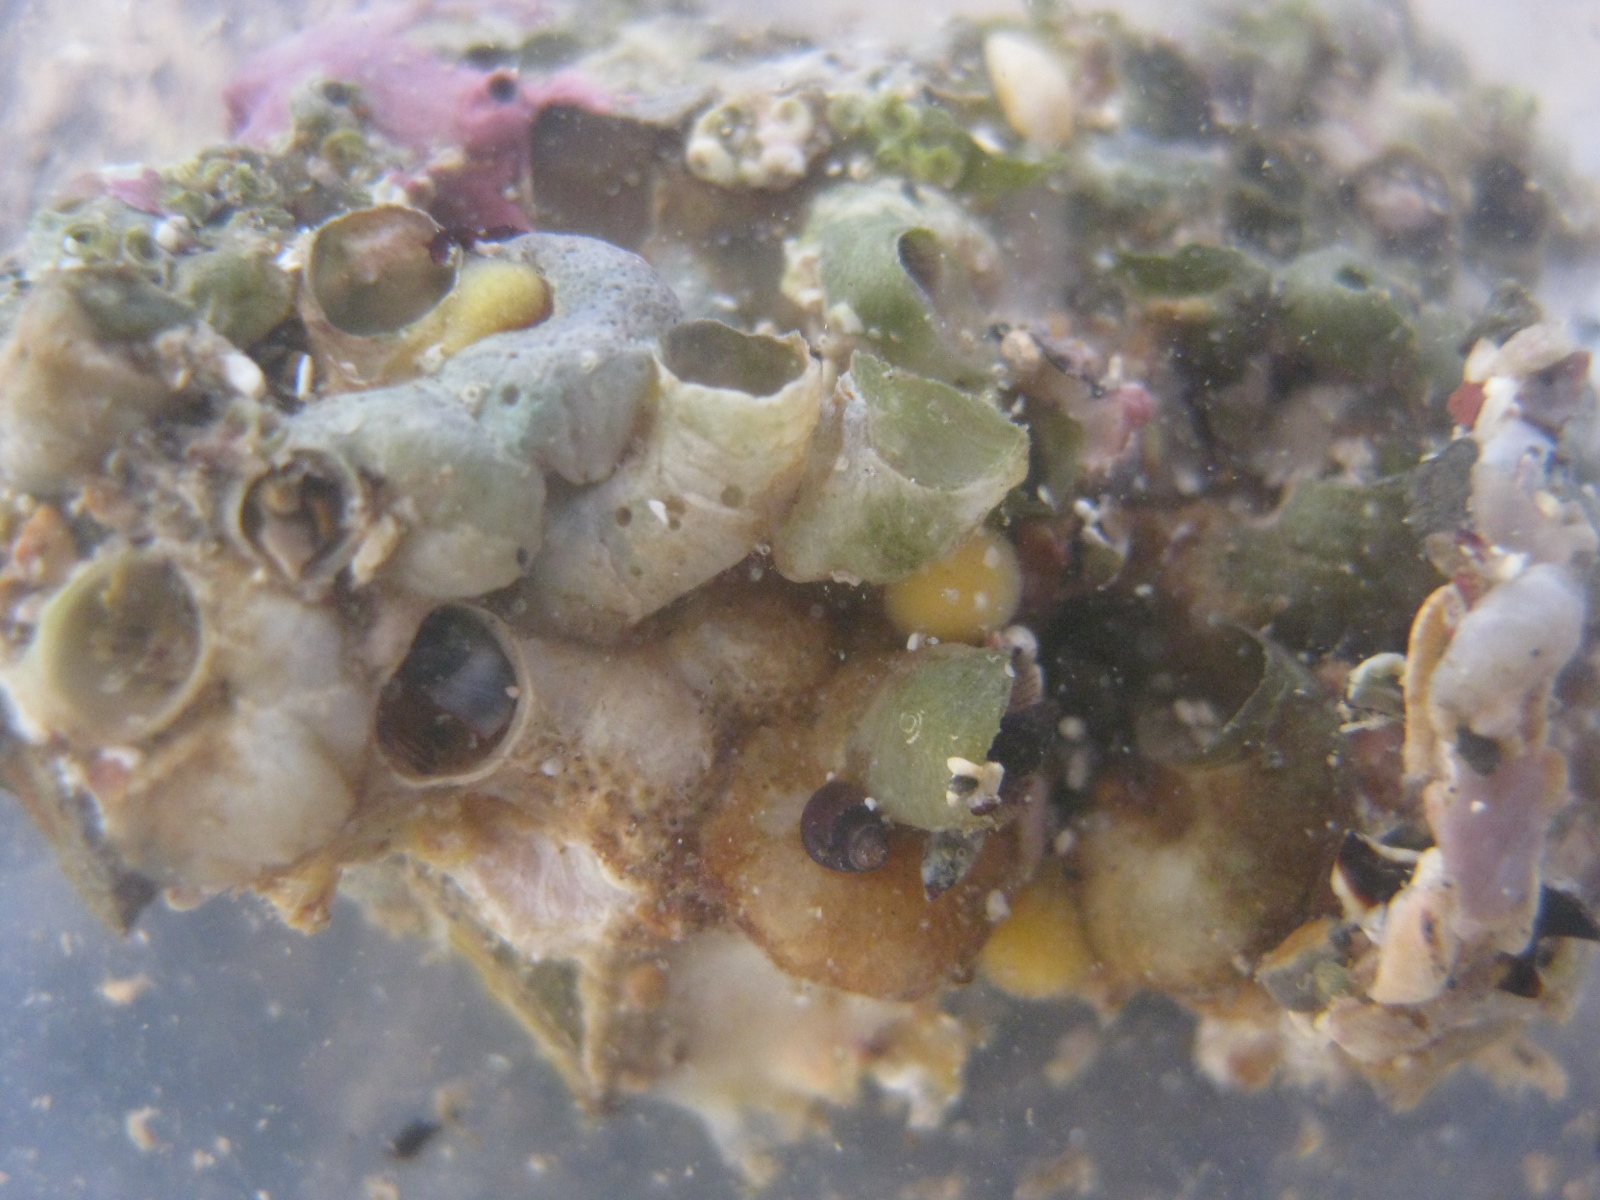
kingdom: Animalia
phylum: Mollusca
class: Gastropoda
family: Siliquariidae
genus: Stephopoma
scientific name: Stephopoma roseum
